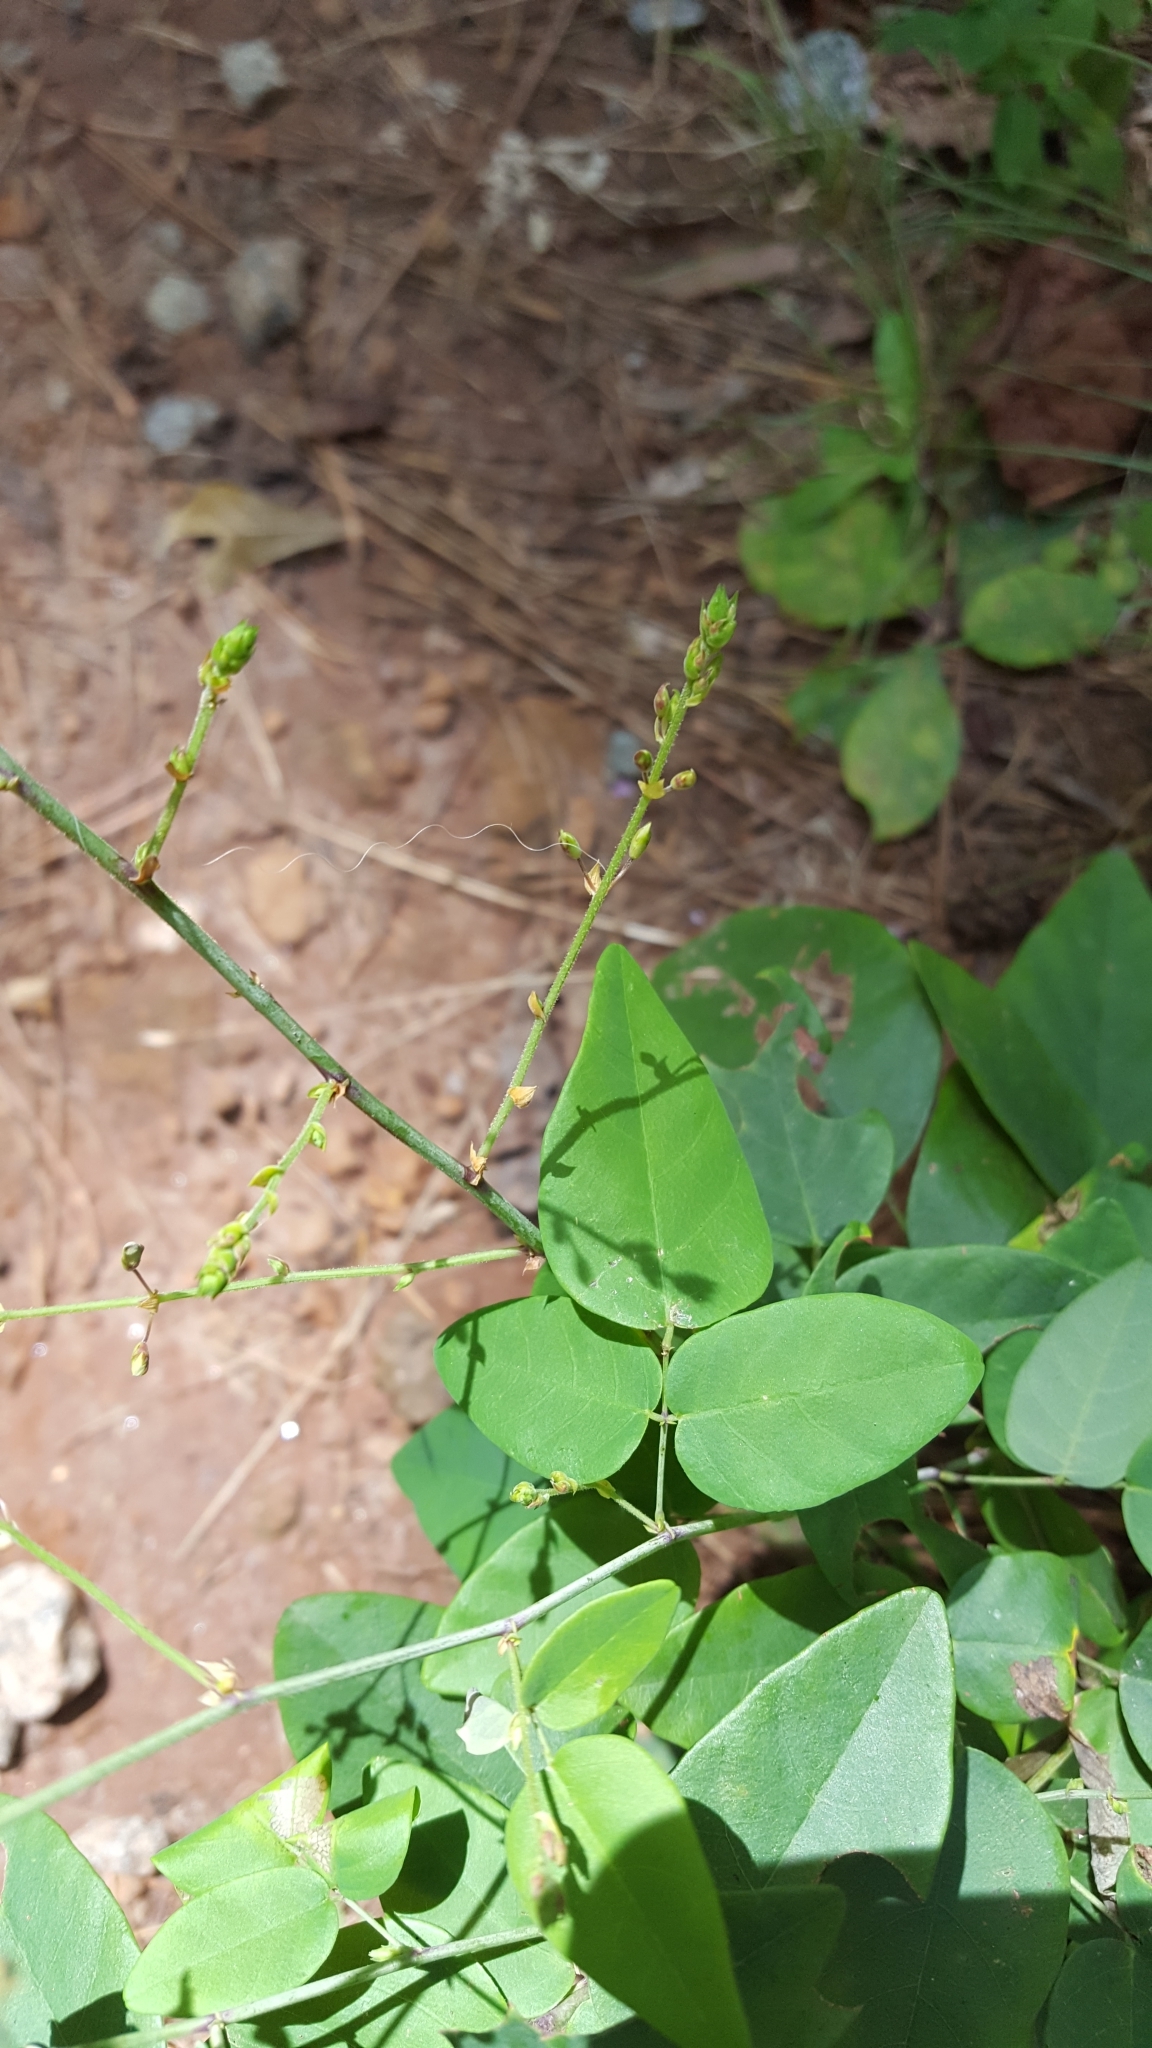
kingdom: Plantae
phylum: Tracheophyta
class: Magnoliopsida
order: Fabales
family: Fabaceae
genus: Desmodium
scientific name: Desmodium laevigatum
